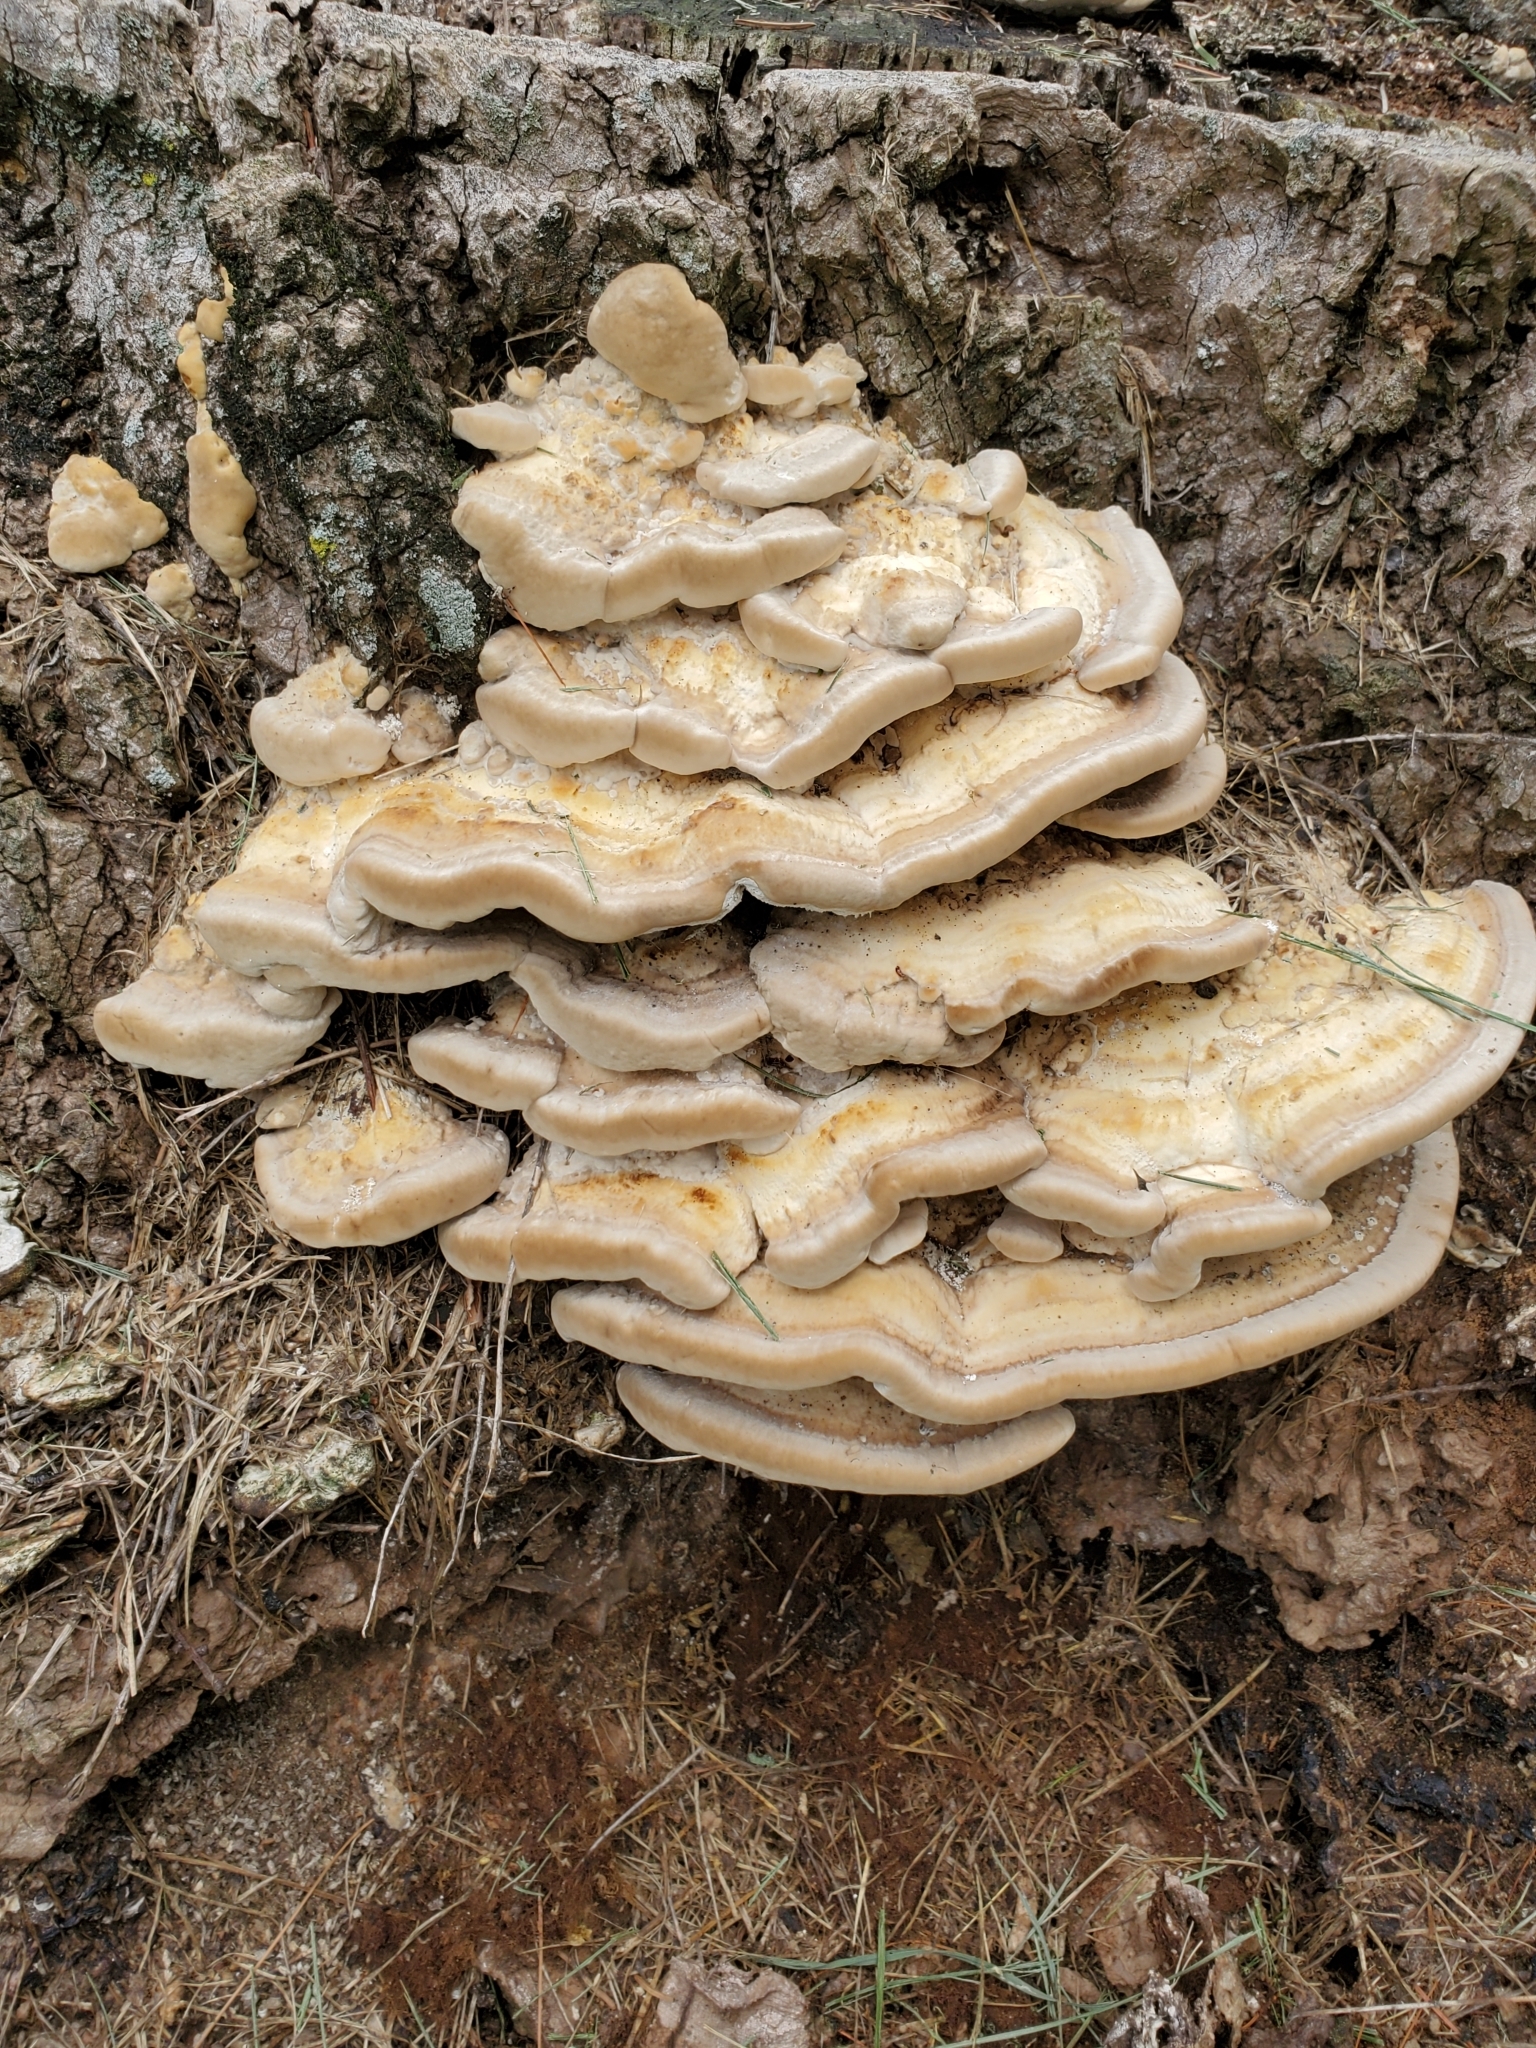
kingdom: Fungi
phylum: Basidiomycota
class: Agaricomycetes
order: Polyporales
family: Meruliaceae
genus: Climacodon
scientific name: Climacodon septentrionalis
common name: Northern tooth
